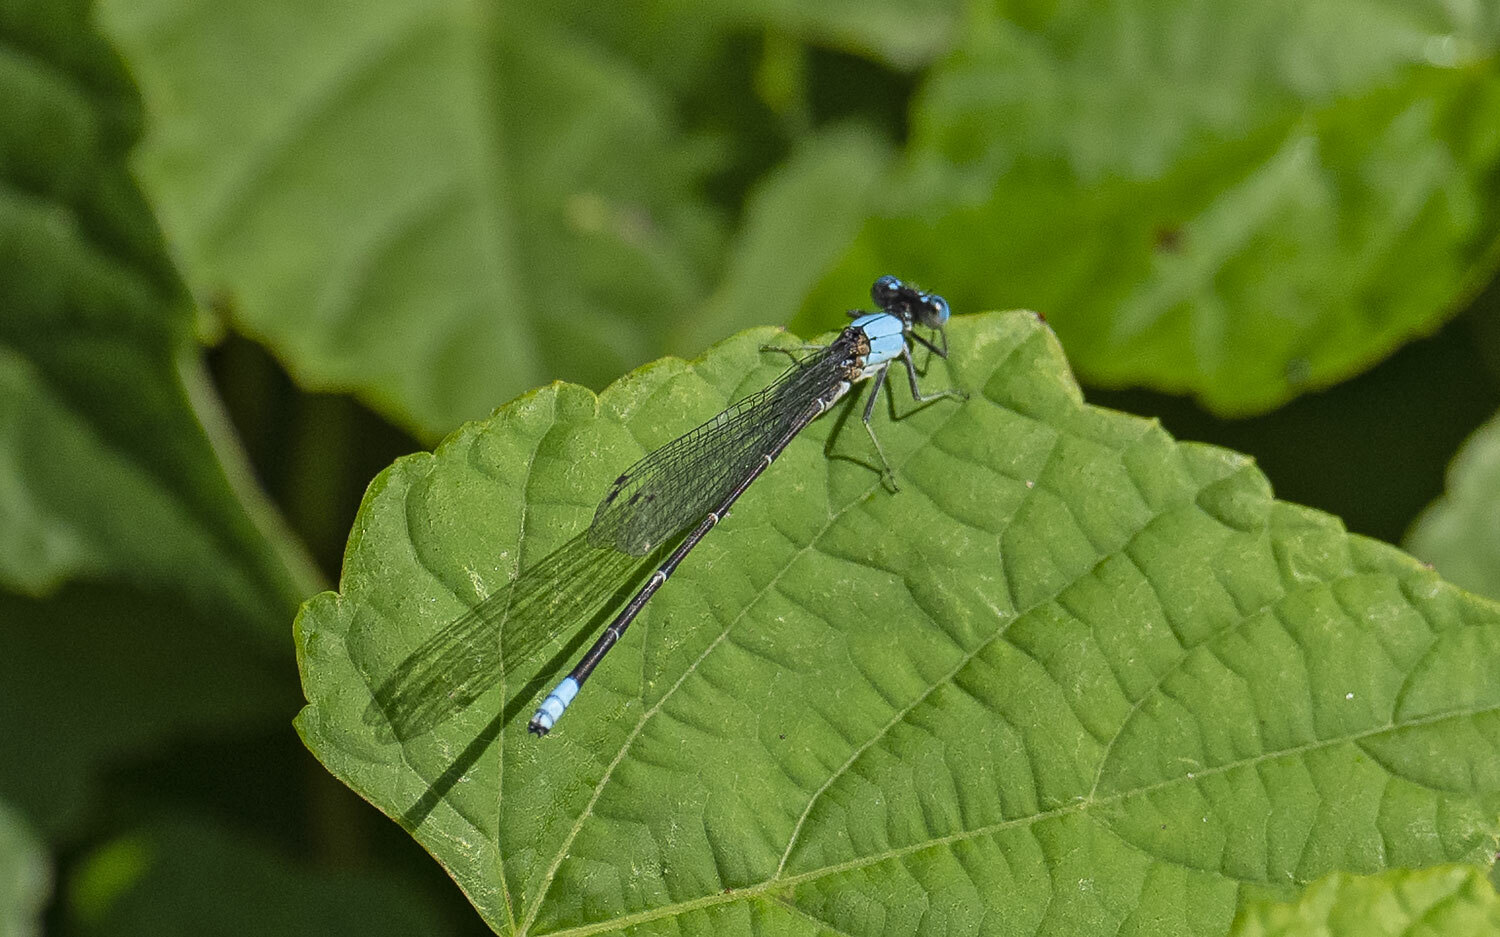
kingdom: Animalia
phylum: Arthropoda
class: Insecta
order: Odonata
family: Coenagrionidae
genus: Argia
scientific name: Argia apicalis
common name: Blue-fronted dancer
